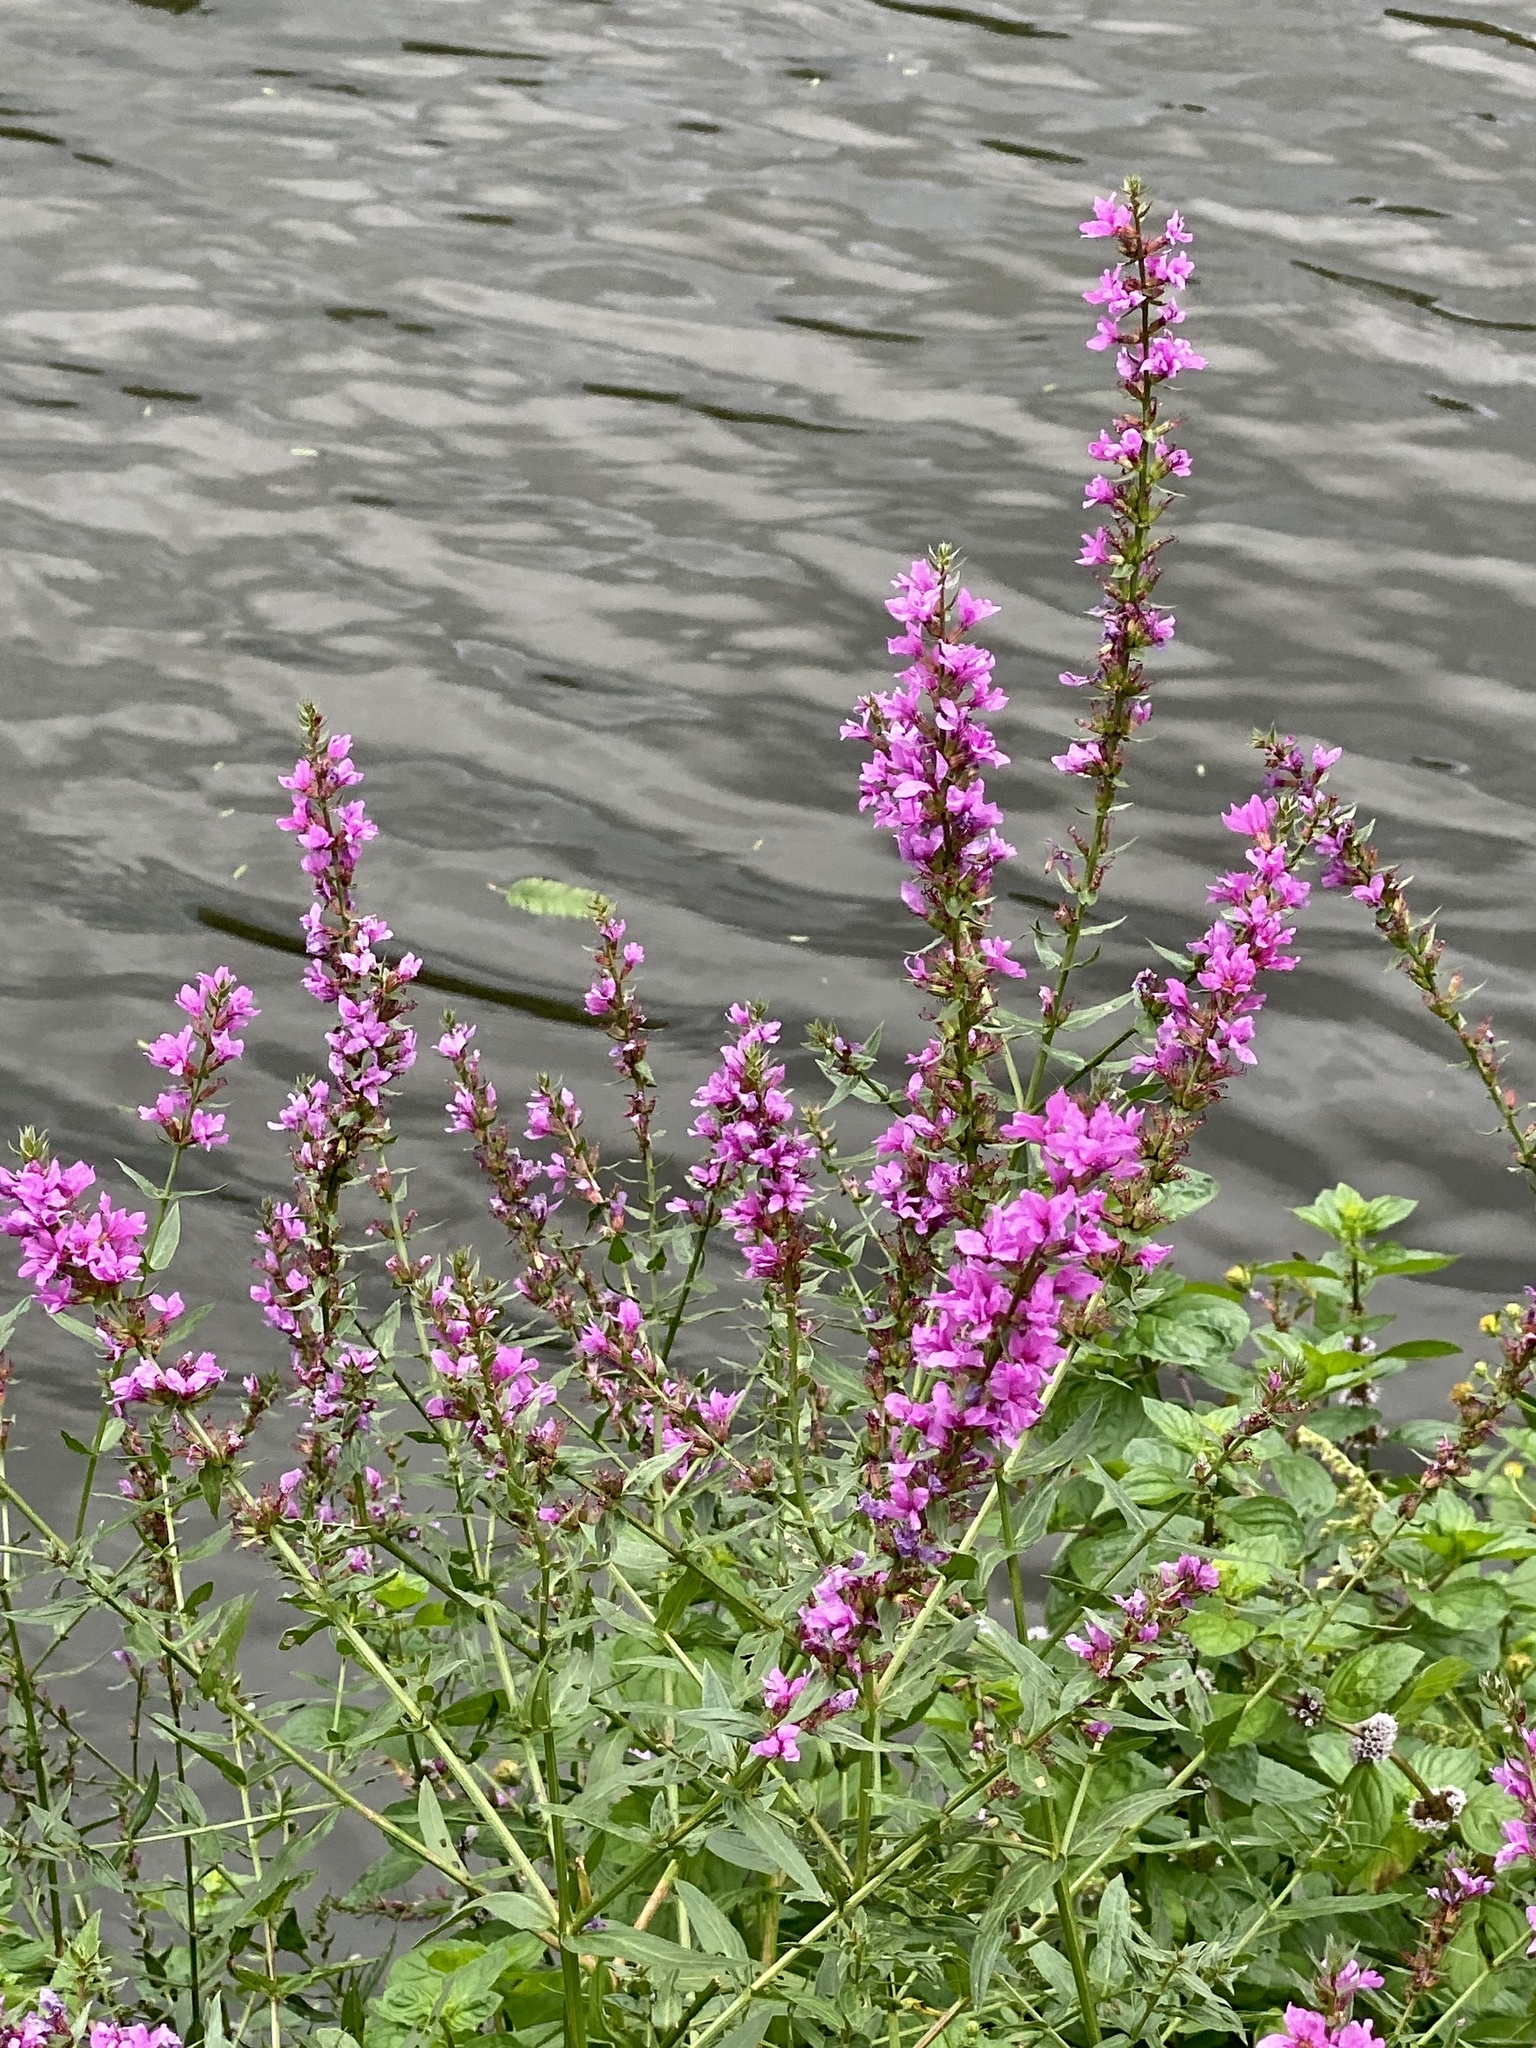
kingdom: Plantae
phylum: Tracheophyta
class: Magnoliopsida
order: Myrtales
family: Lythraceae
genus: Lythrum
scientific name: Lythrum salicaria
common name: Purple loosestrife
